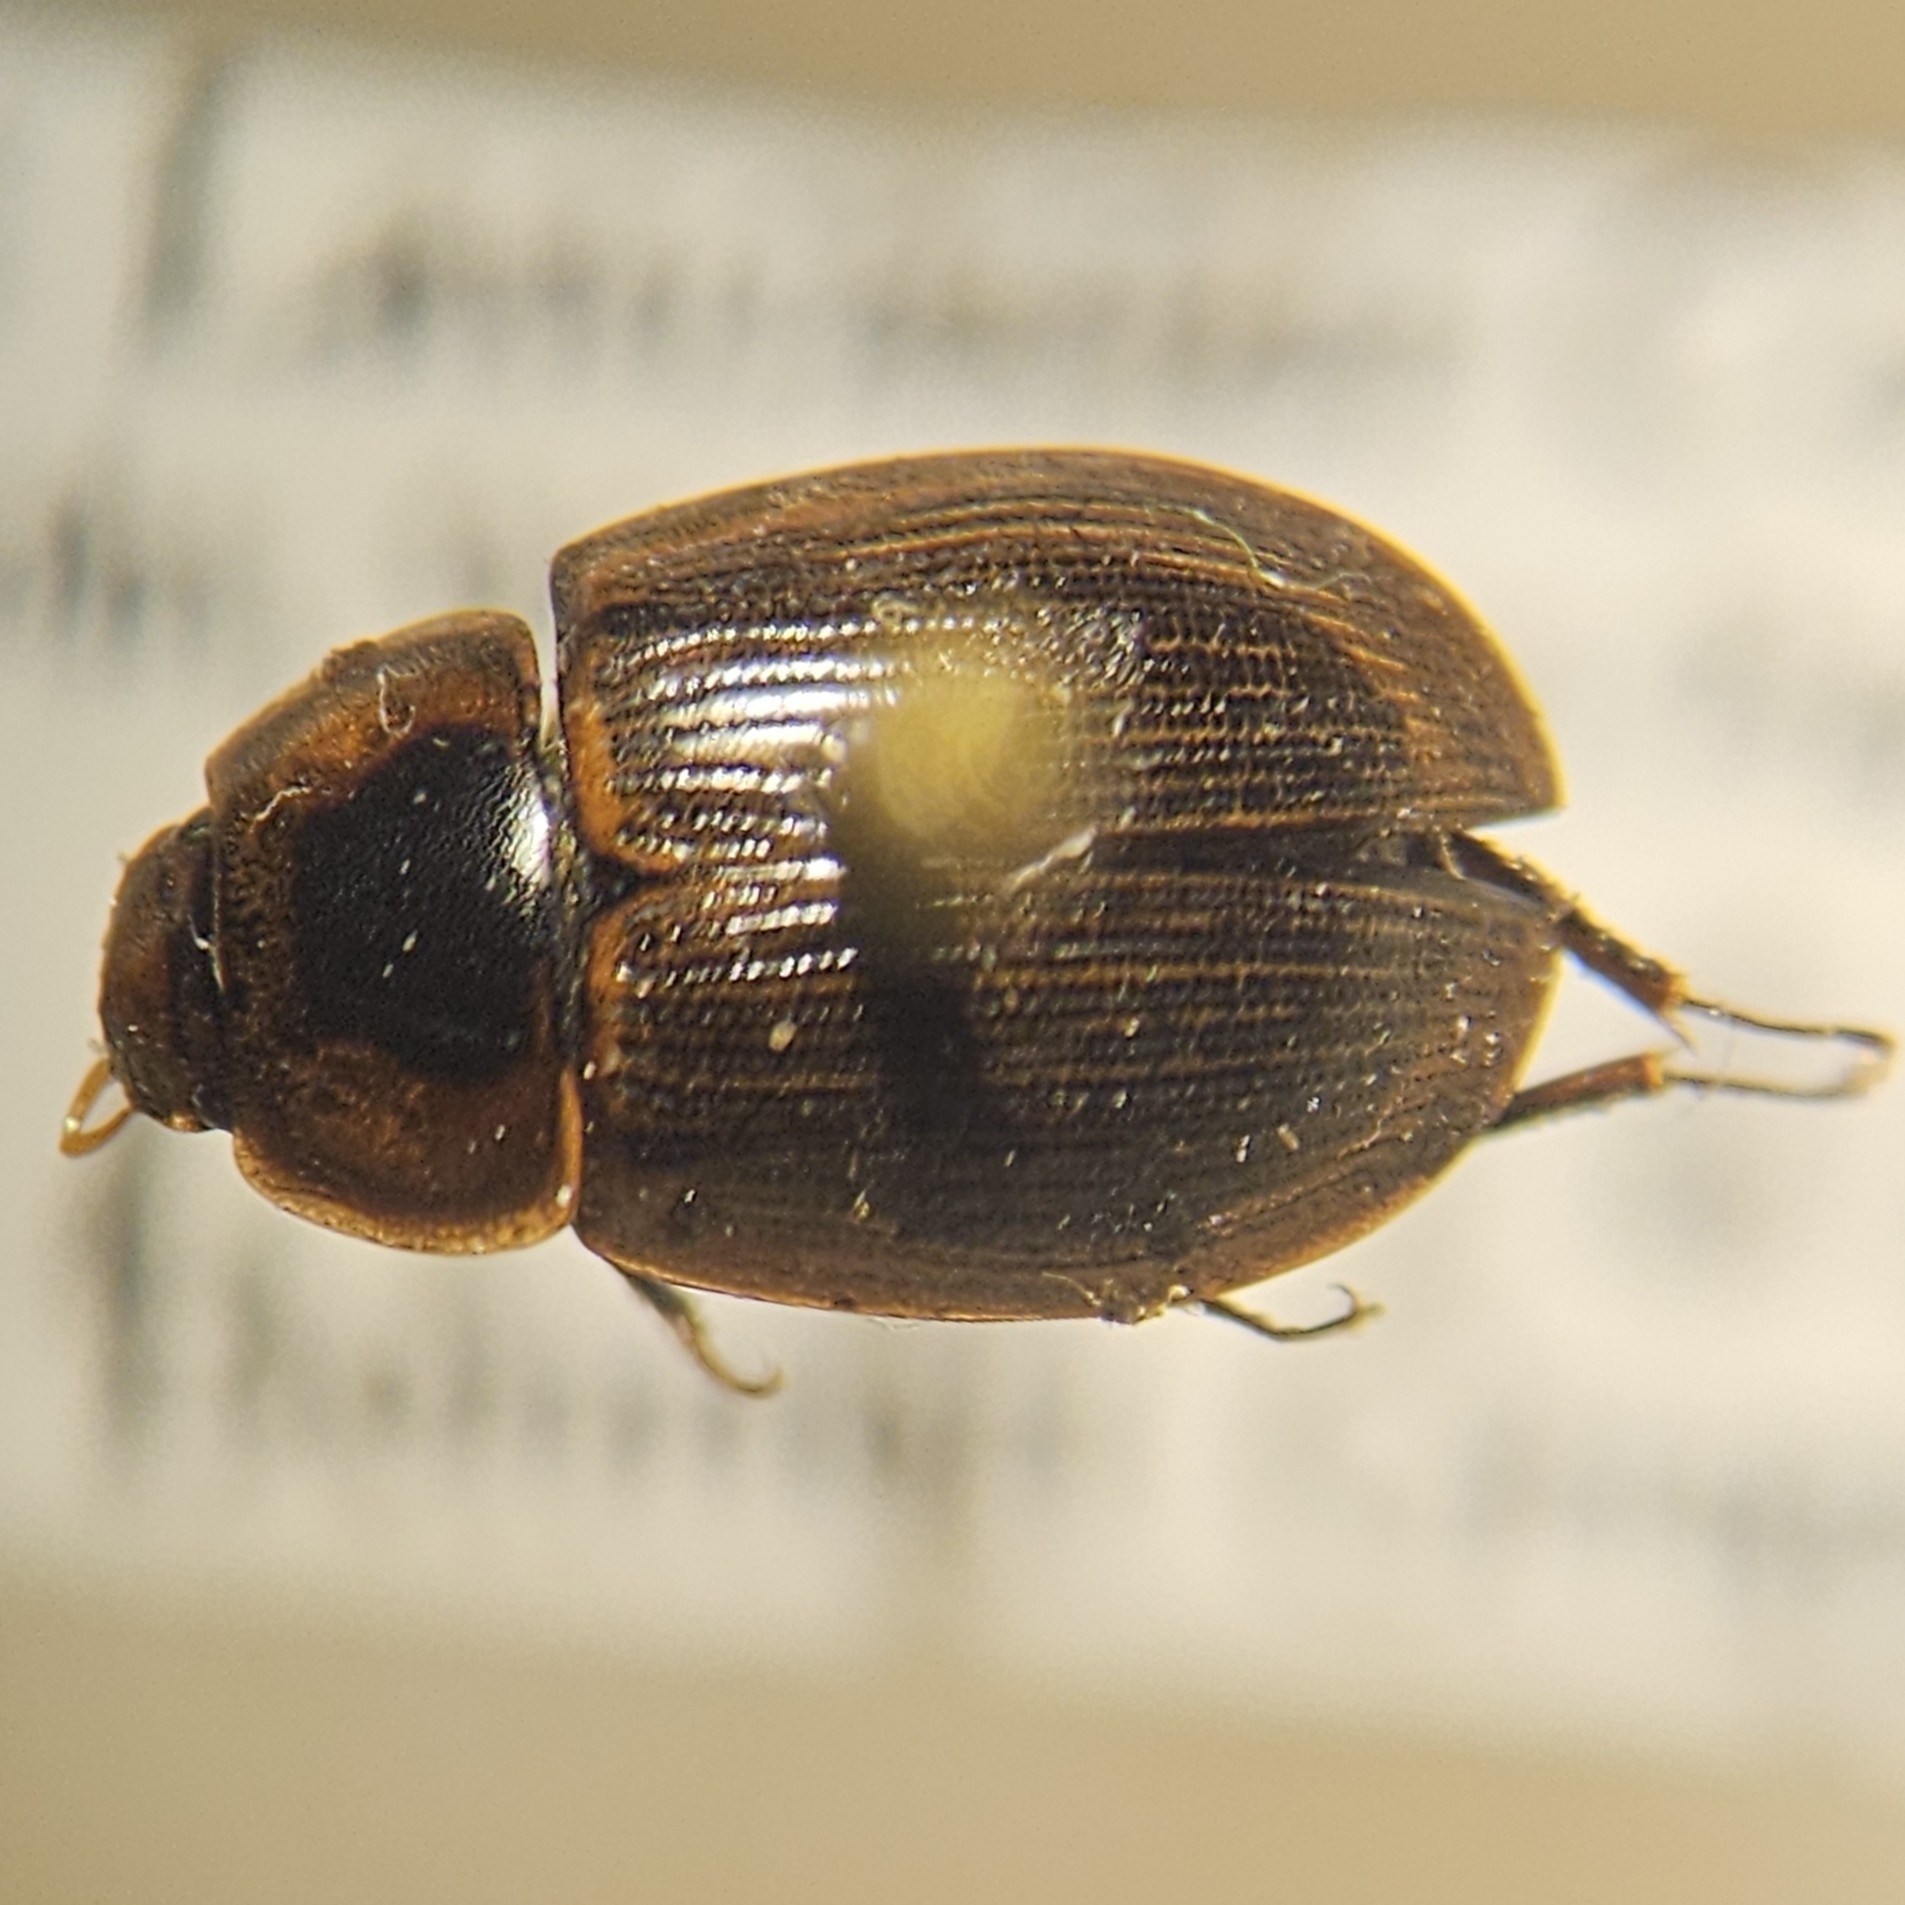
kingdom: Animalia
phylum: Arthropoda
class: Insecta
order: Coleoptera
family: Hydrophilidae
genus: Helochares
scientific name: Helochares maculicollis
